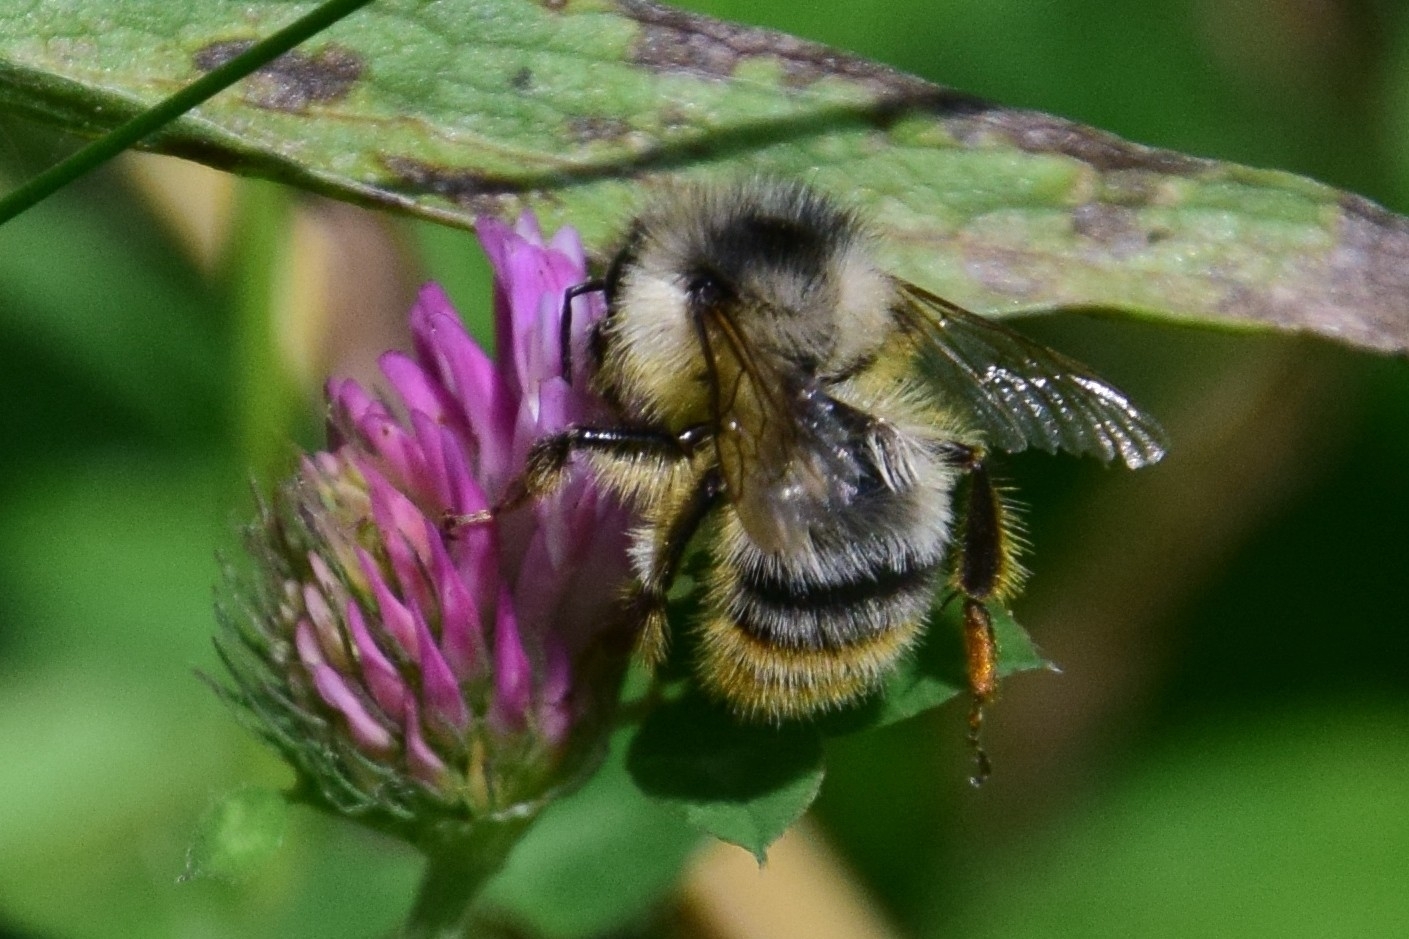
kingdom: Animalia
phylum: Arthropoda
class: Insecta
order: Hymenoptera
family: Apidae
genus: Bombus
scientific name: Bombus sylvarum
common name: Shrill carder bee
